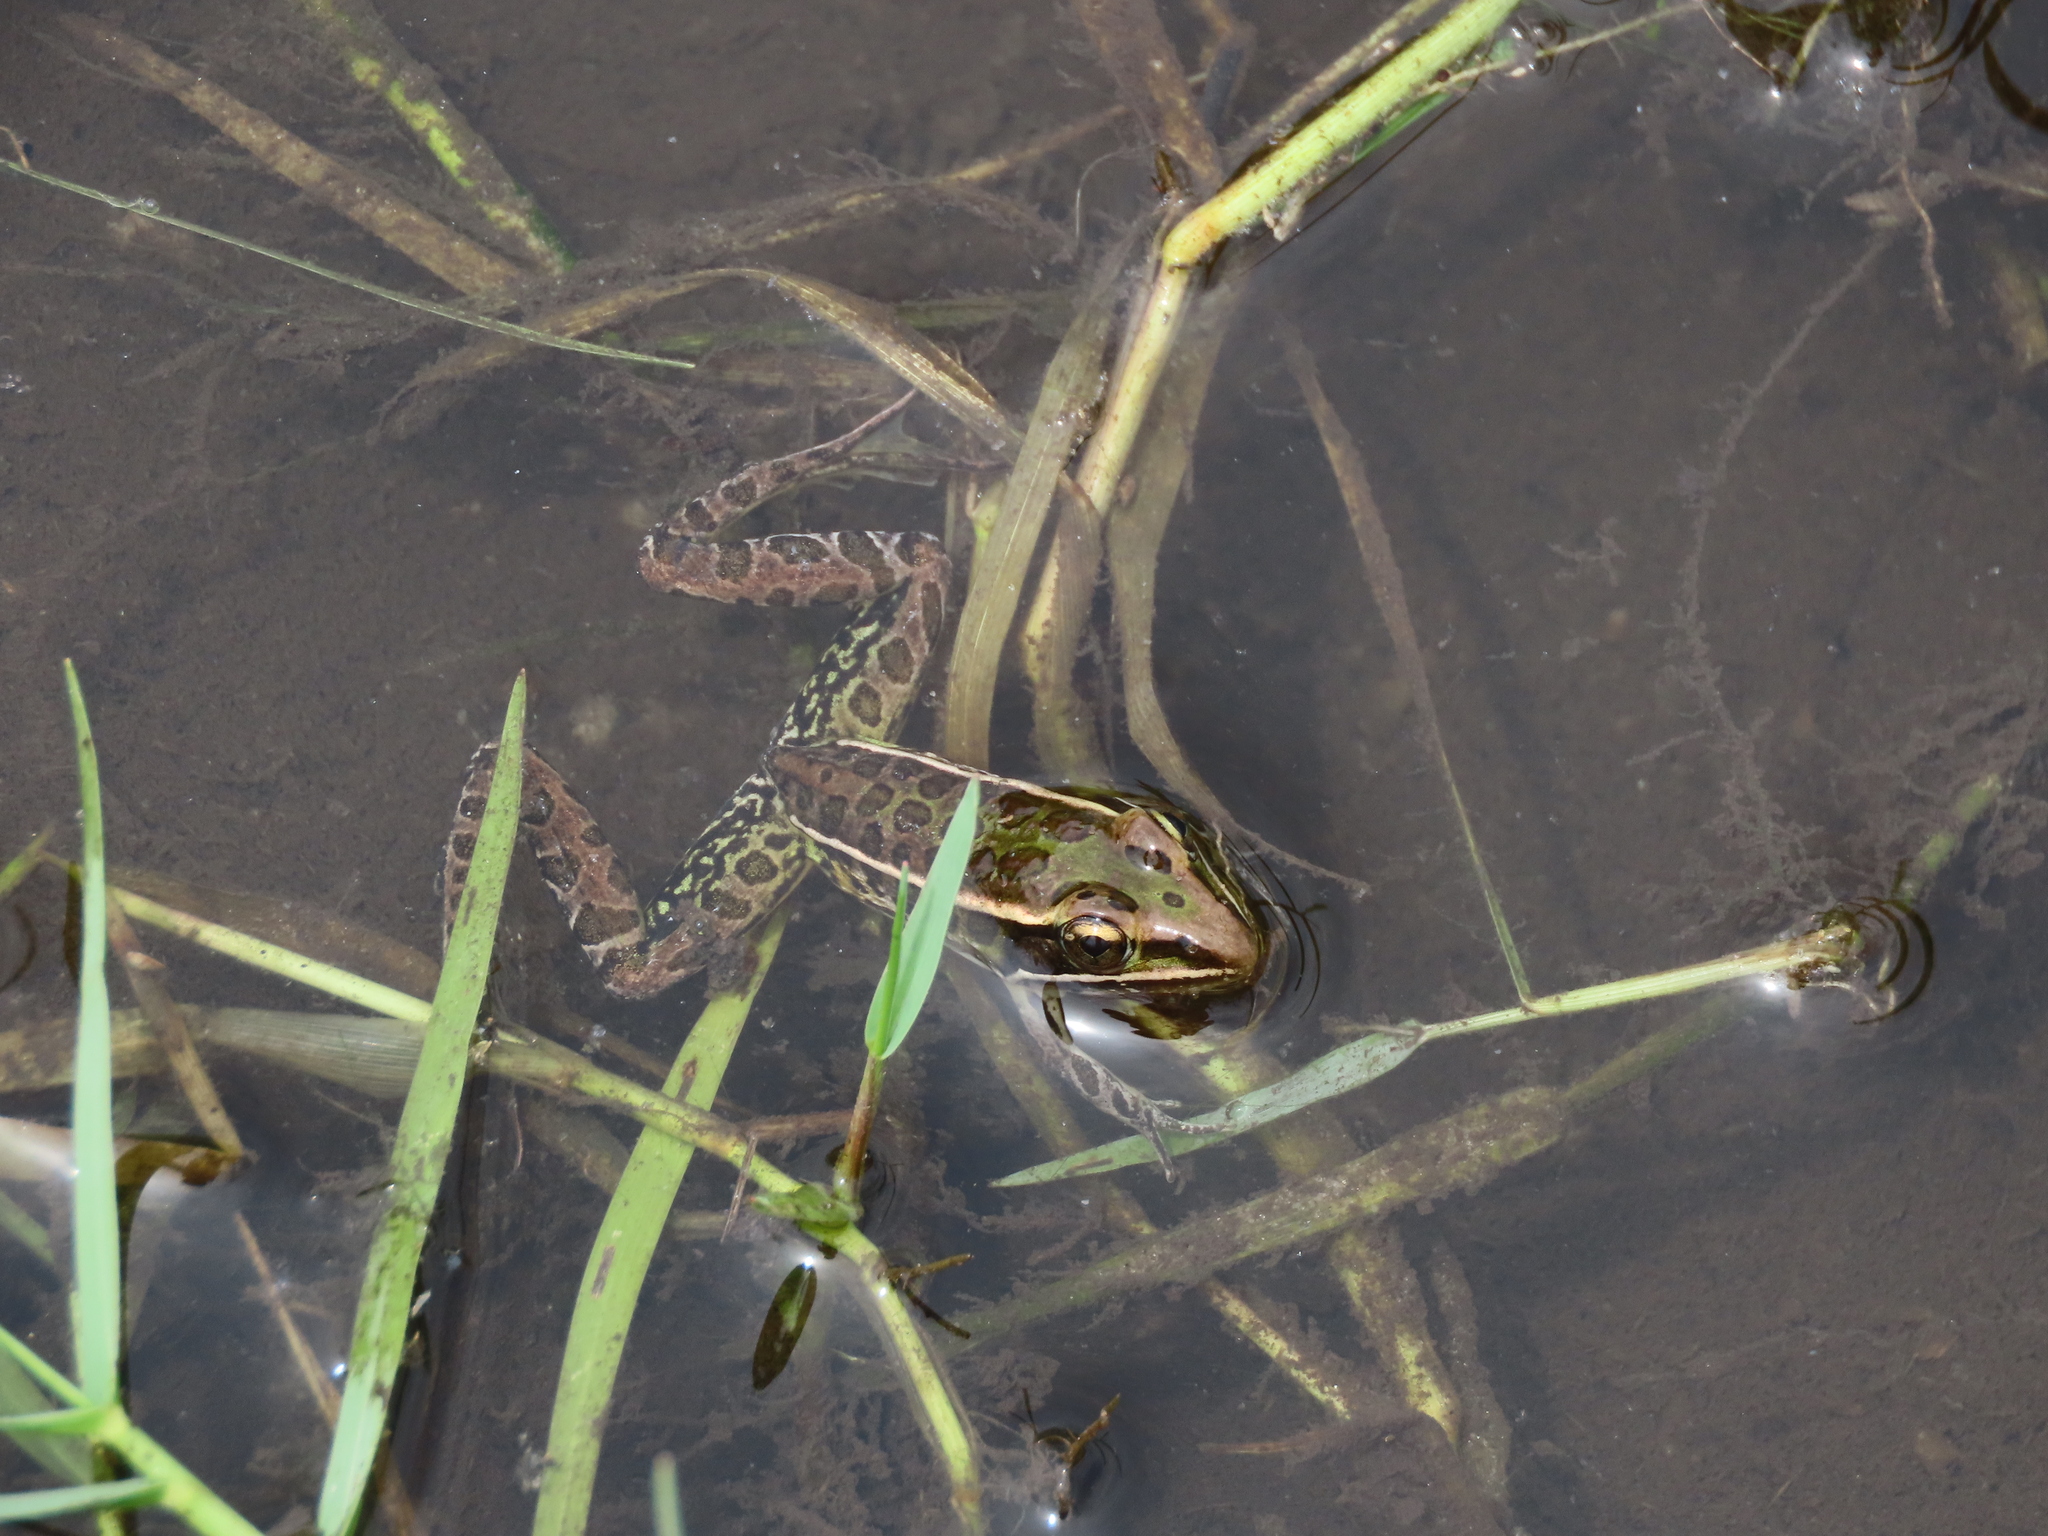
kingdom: Animalia
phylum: Chordata
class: Amphibia
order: Anura
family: Ranidae
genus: Lithobates
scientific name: Lithobates sphenocephalus
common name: Southern leopard frog
